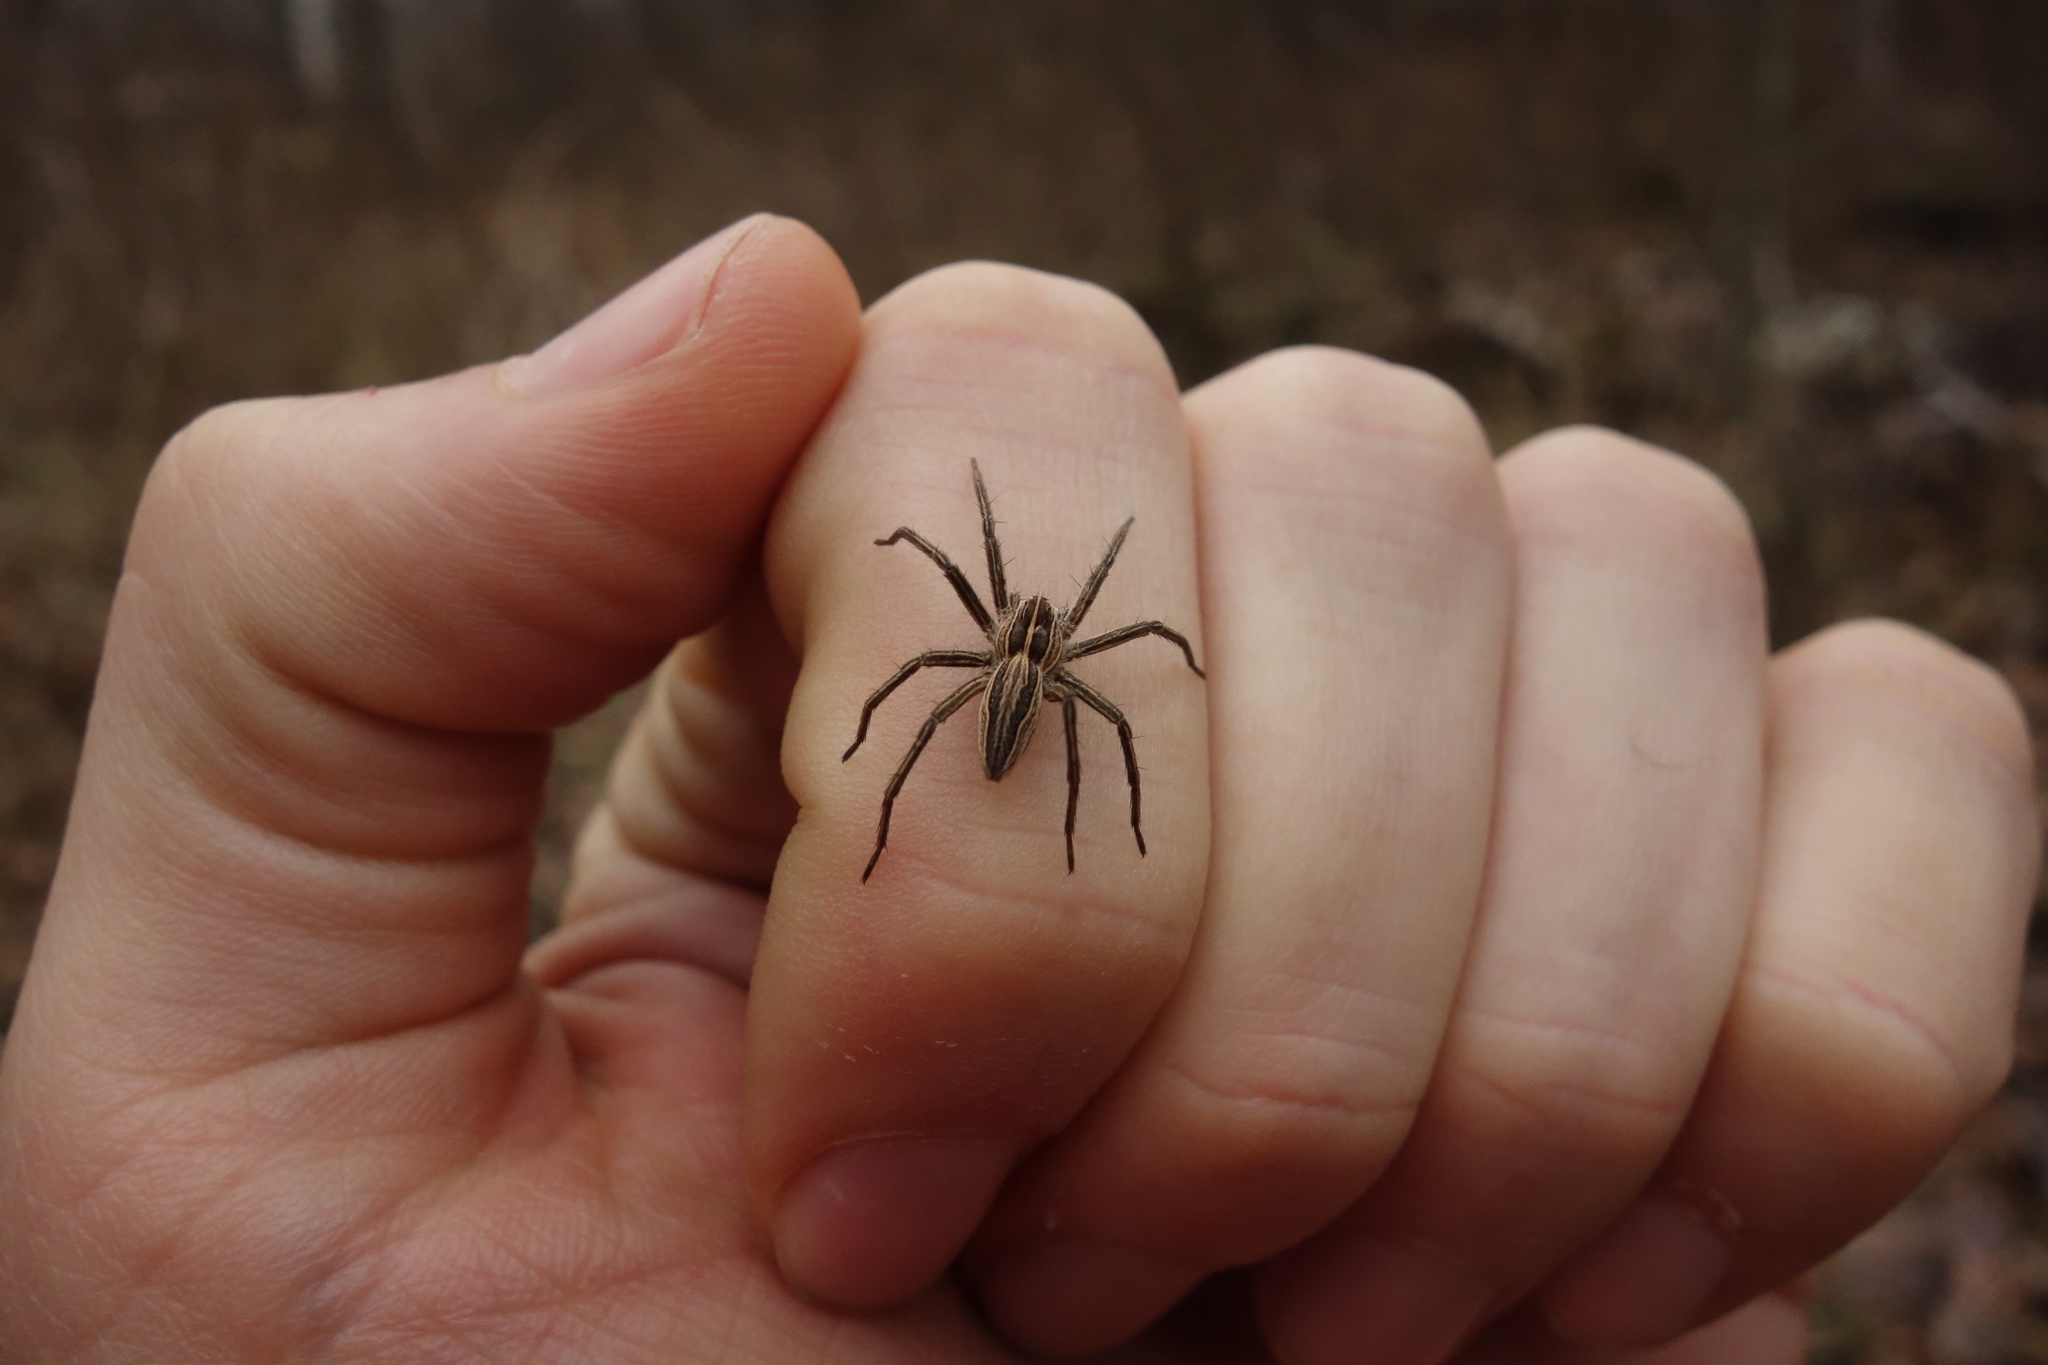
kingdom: Animalia
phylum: Arthropoda
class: Arachnida
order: Araneae
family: Pisauridae
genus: Pisaura
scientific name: Pisaura mirabilis
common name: Tent spider
